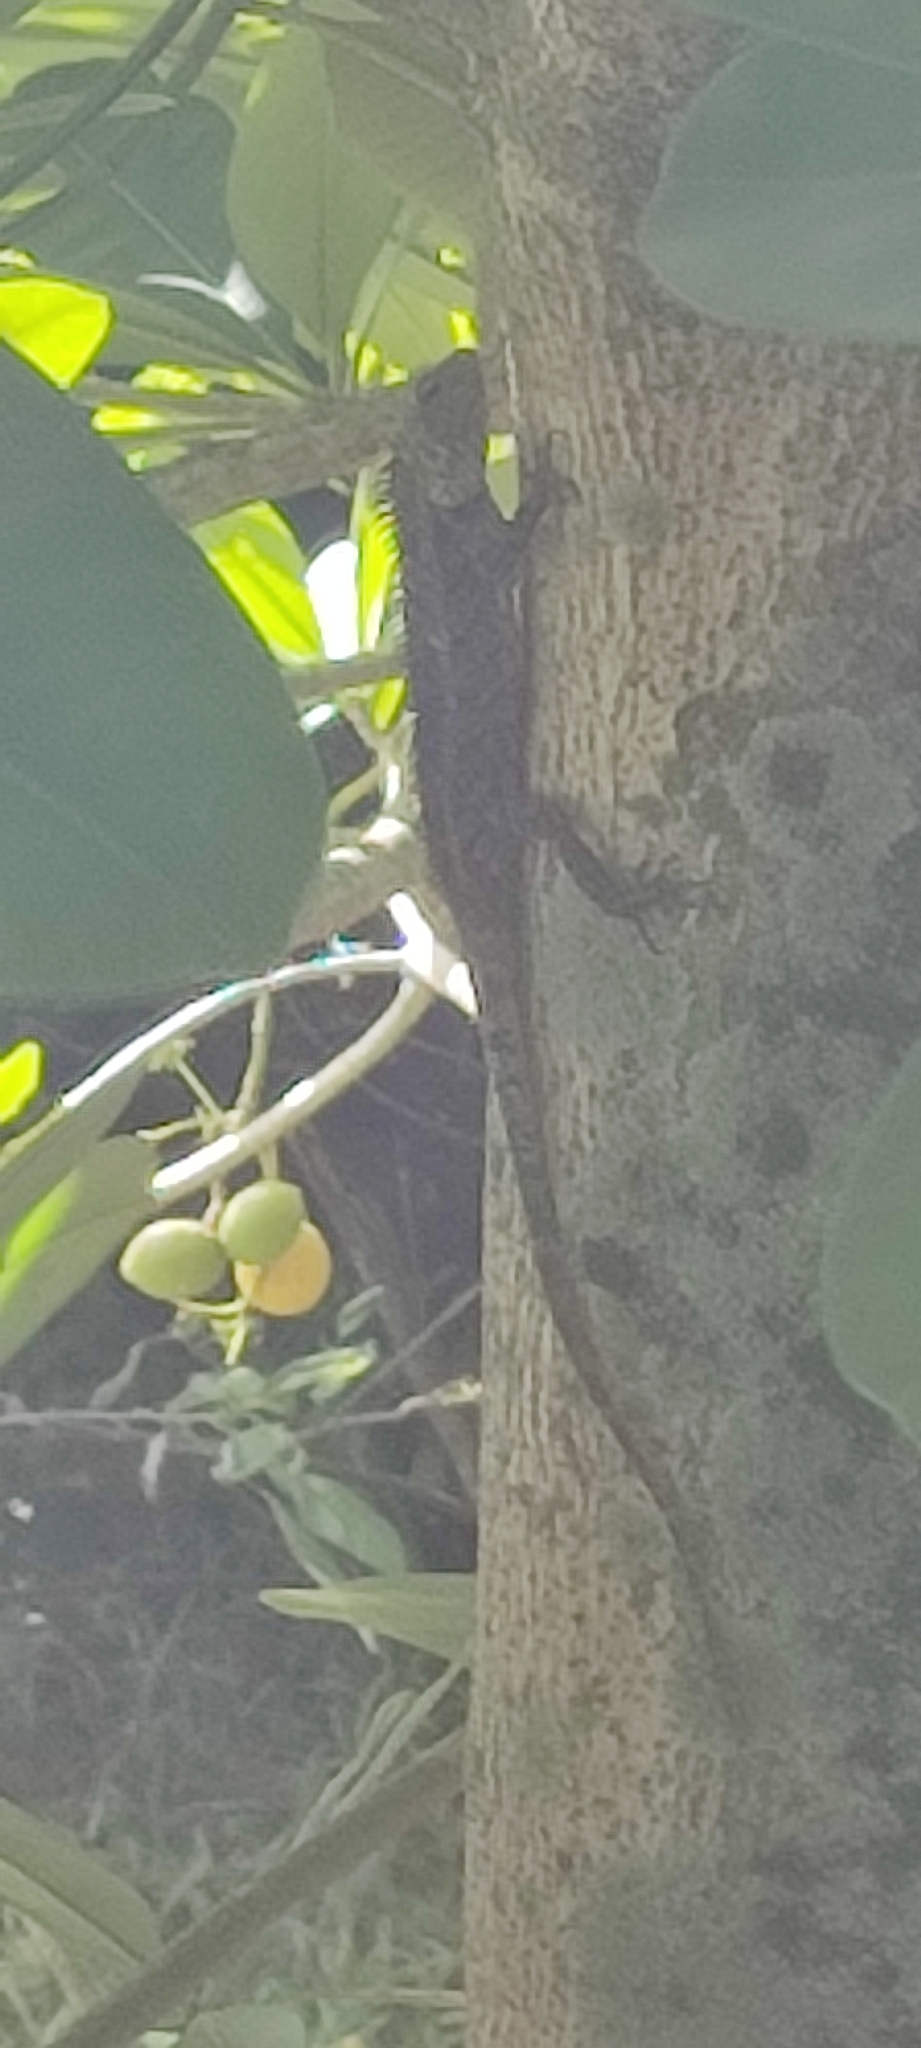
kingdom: Animalia
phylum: Chordata
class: Squamata
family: Agamidae
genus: Calotes
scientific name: Calotes versicolor
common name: Oriental garden lizard
